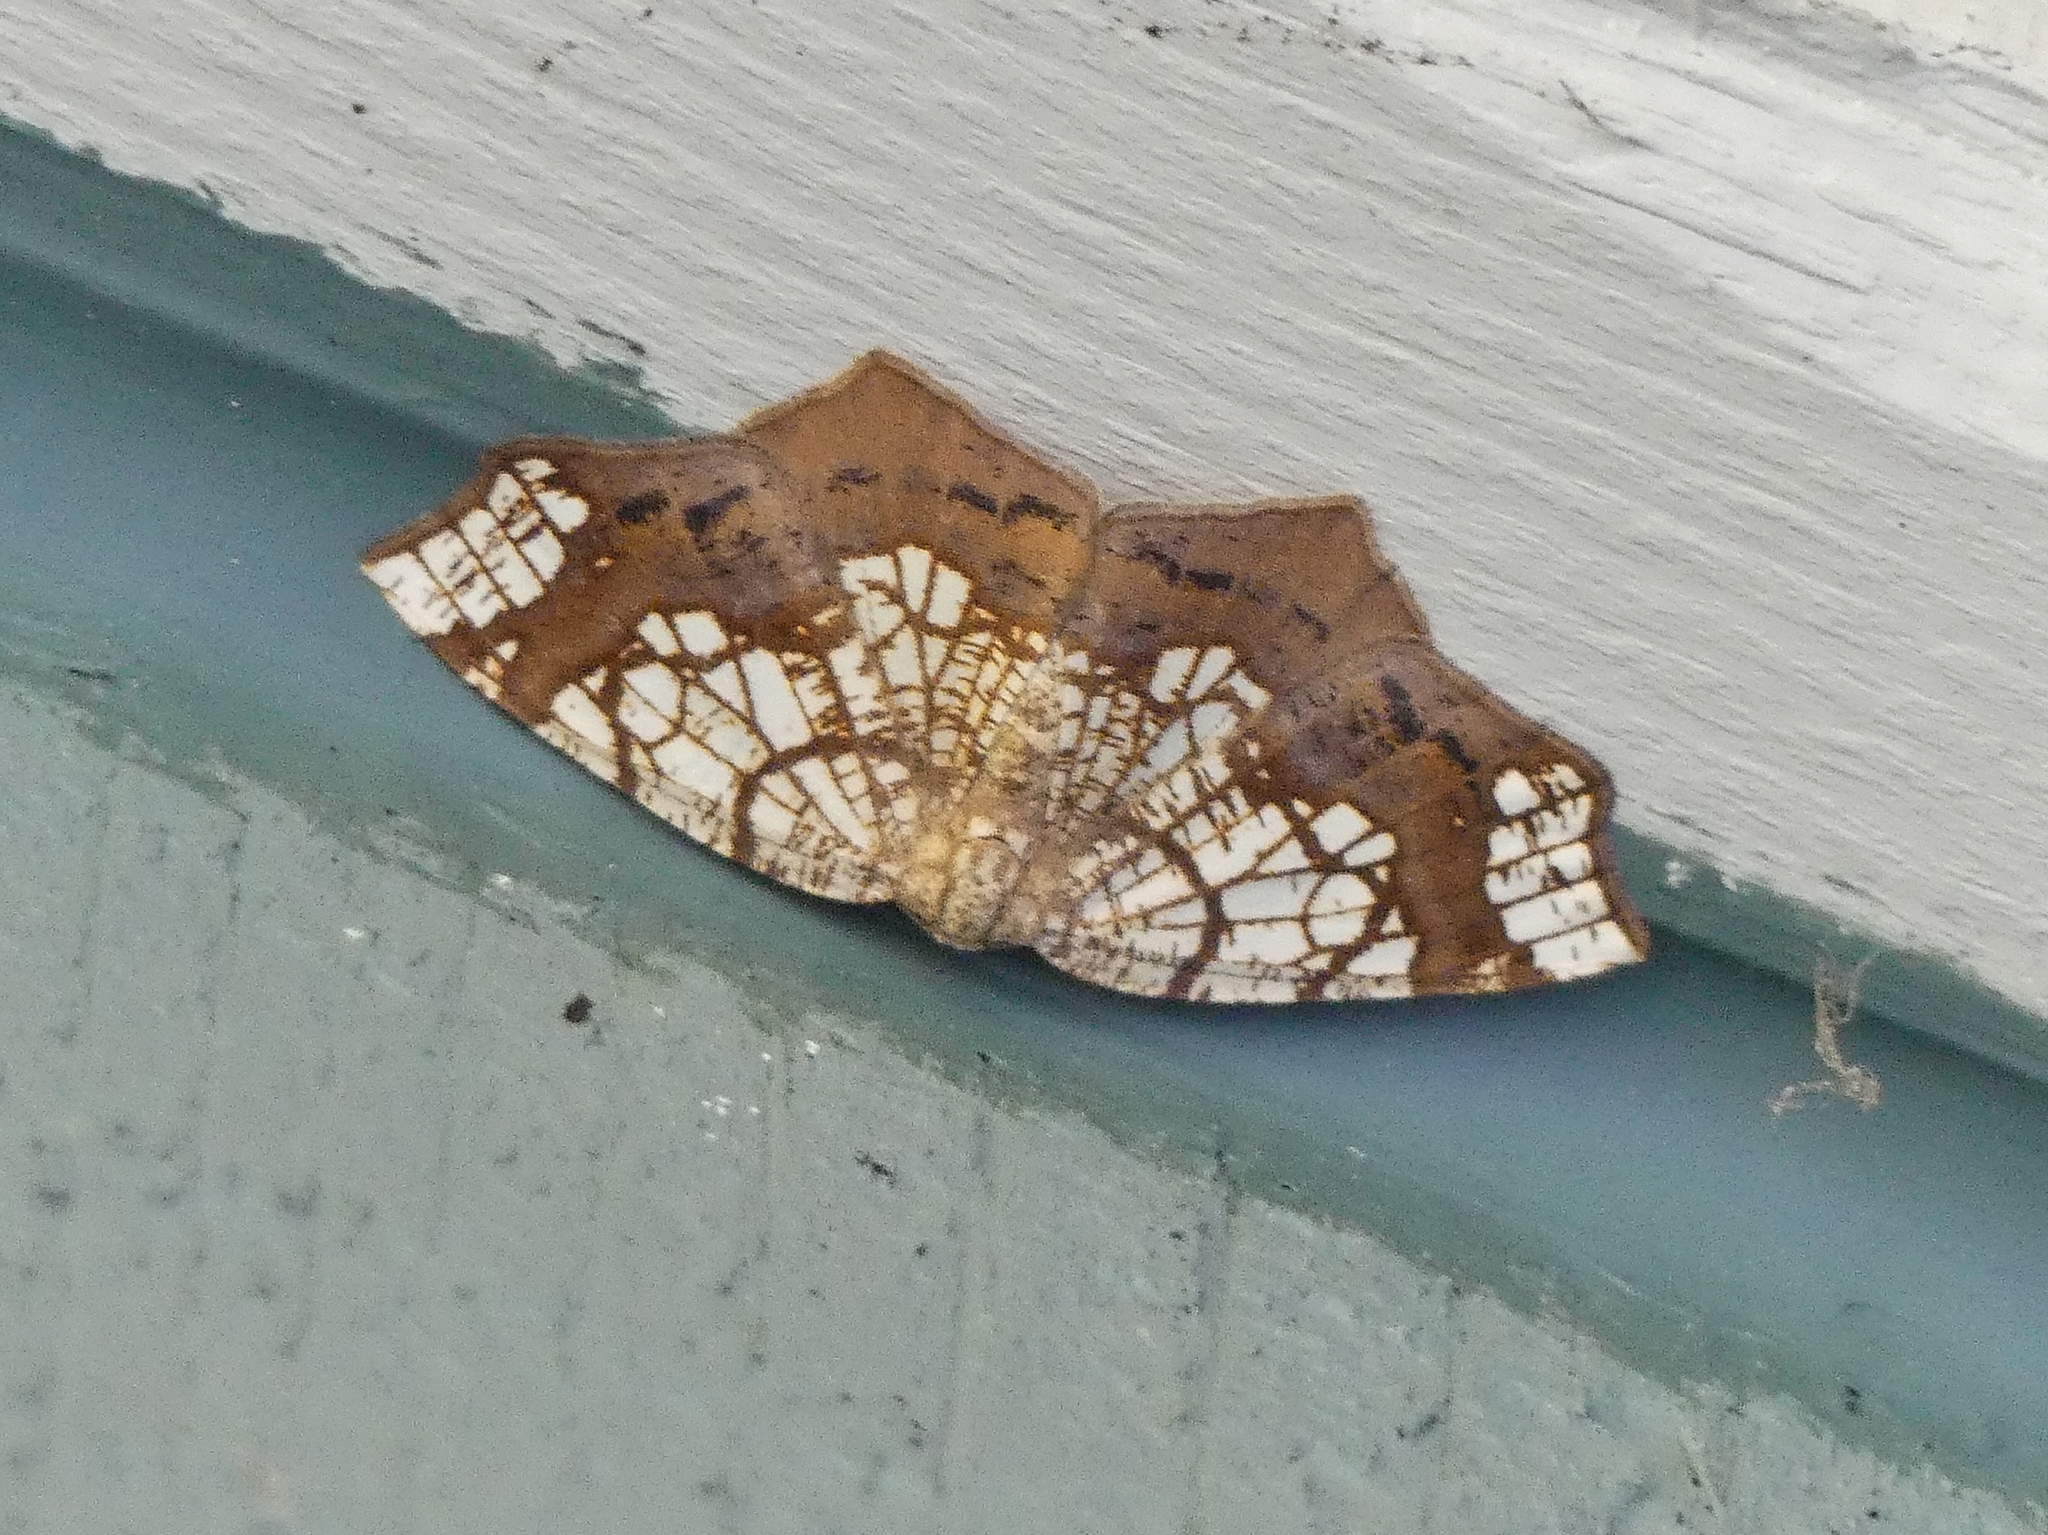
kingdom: Animalia
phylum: Arthropoda
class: Insecta
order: Lepidoptera
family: Geometridae
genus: Nematocampa
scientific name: Nematocampa resistaria
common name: Horned spanworm moth
